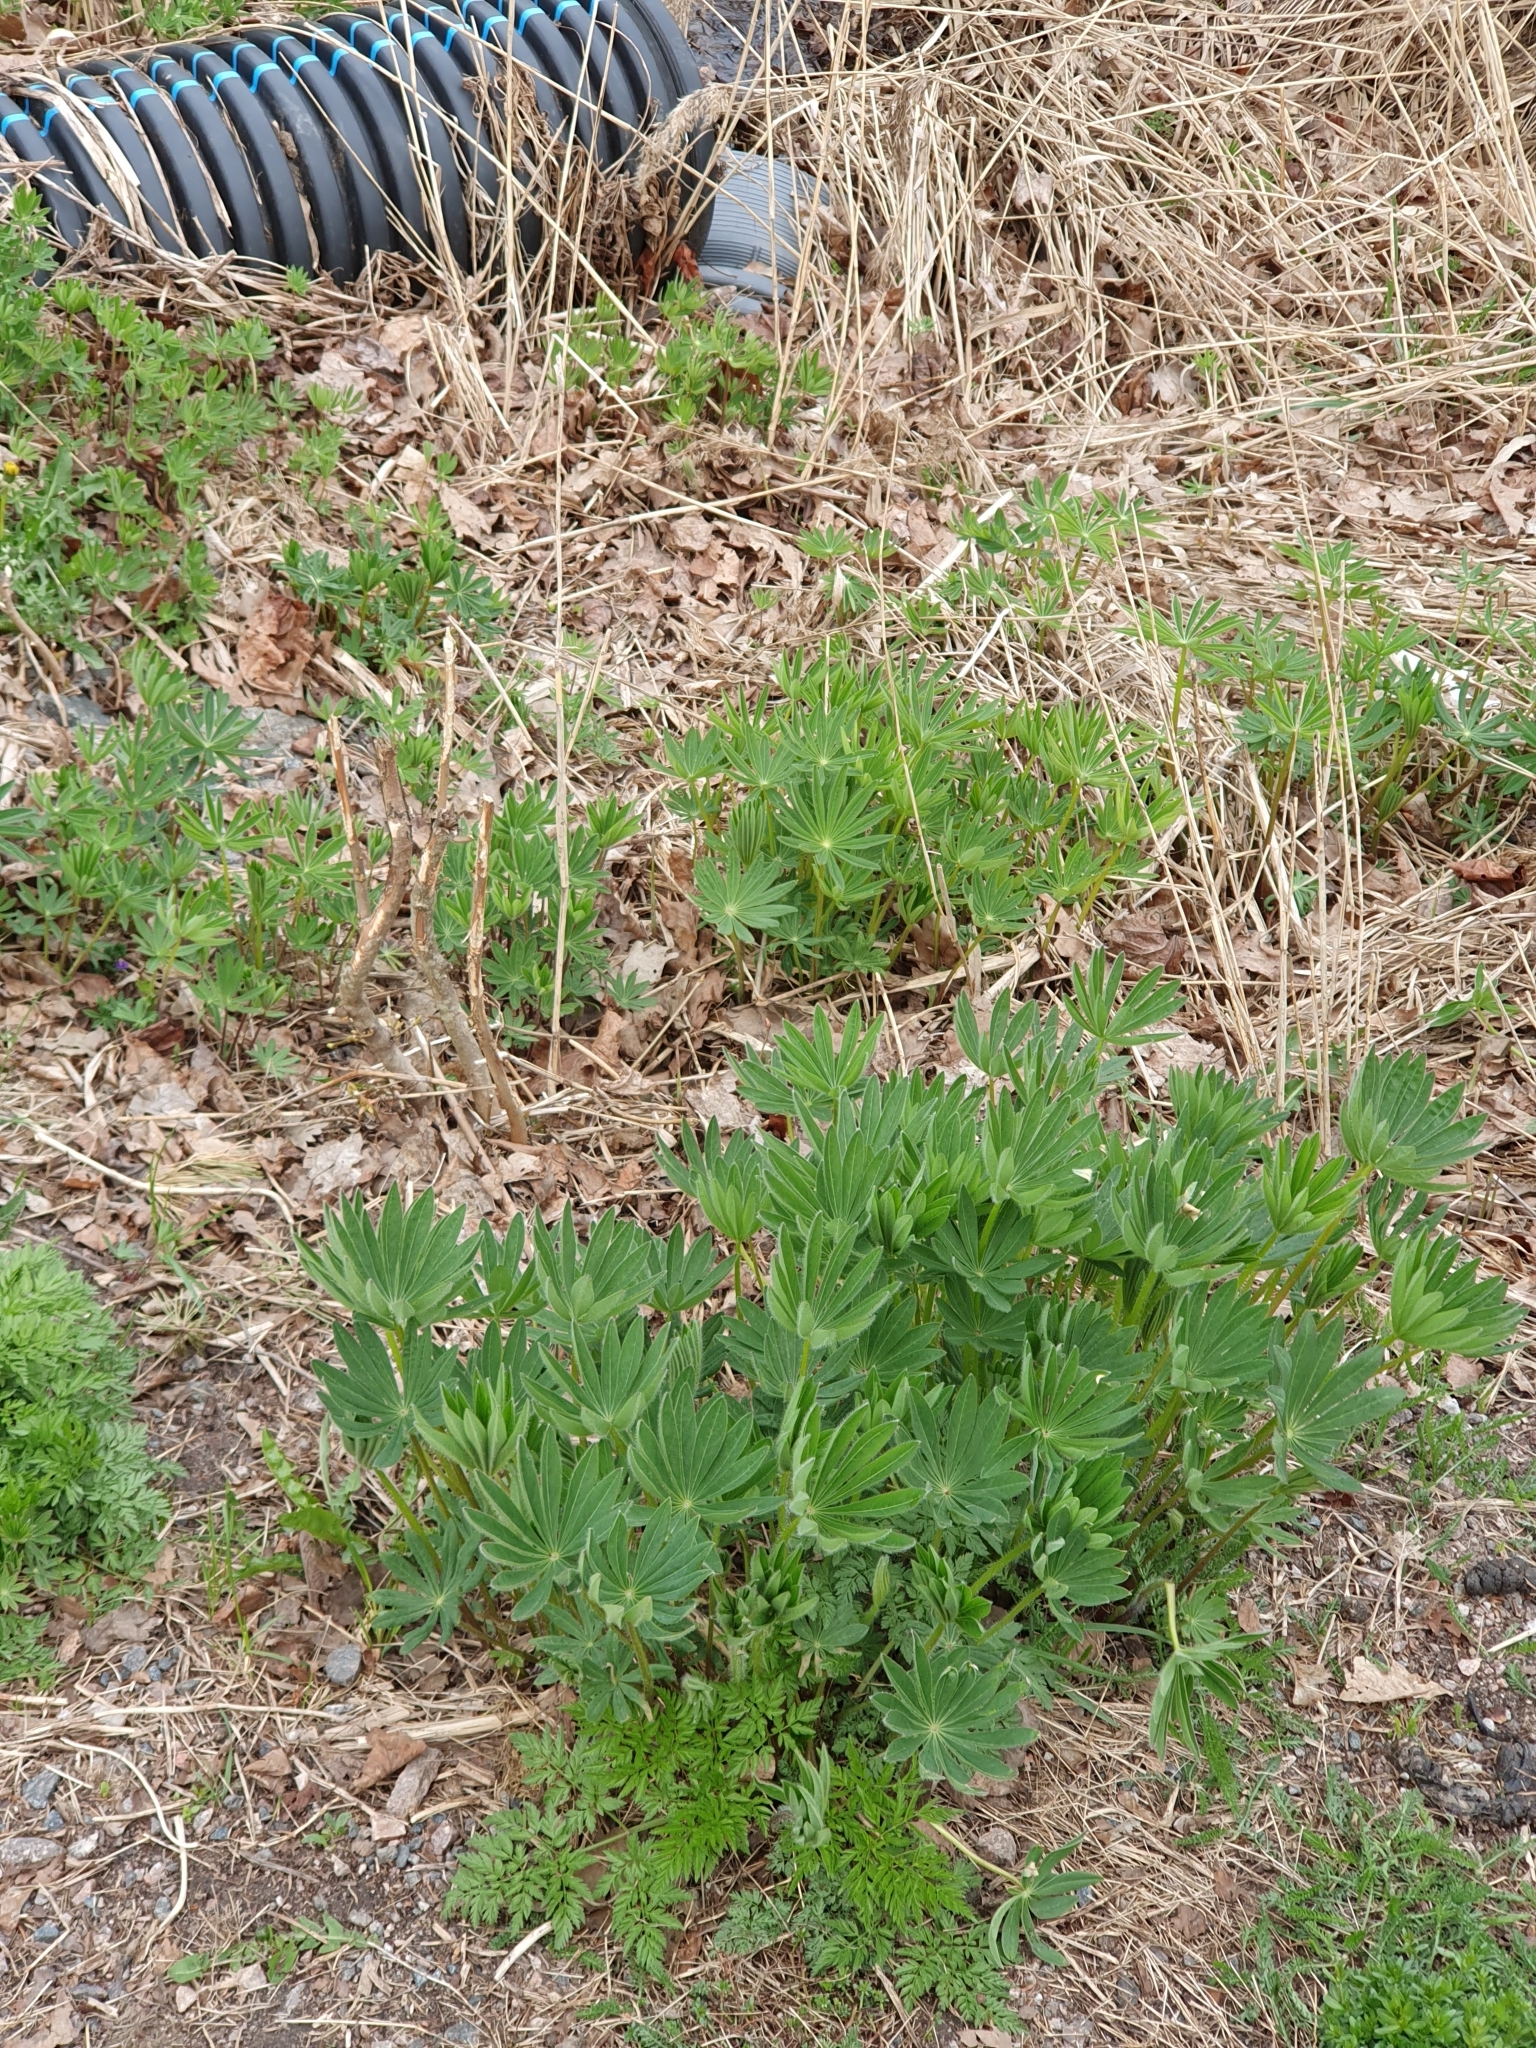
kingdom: Plantae
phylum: Tracheophyta
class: Magnoliopsida
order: Fabales
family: Fabaceae
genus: Lupinus
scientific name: Lupinus polyphyllus
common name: Garden lupin
